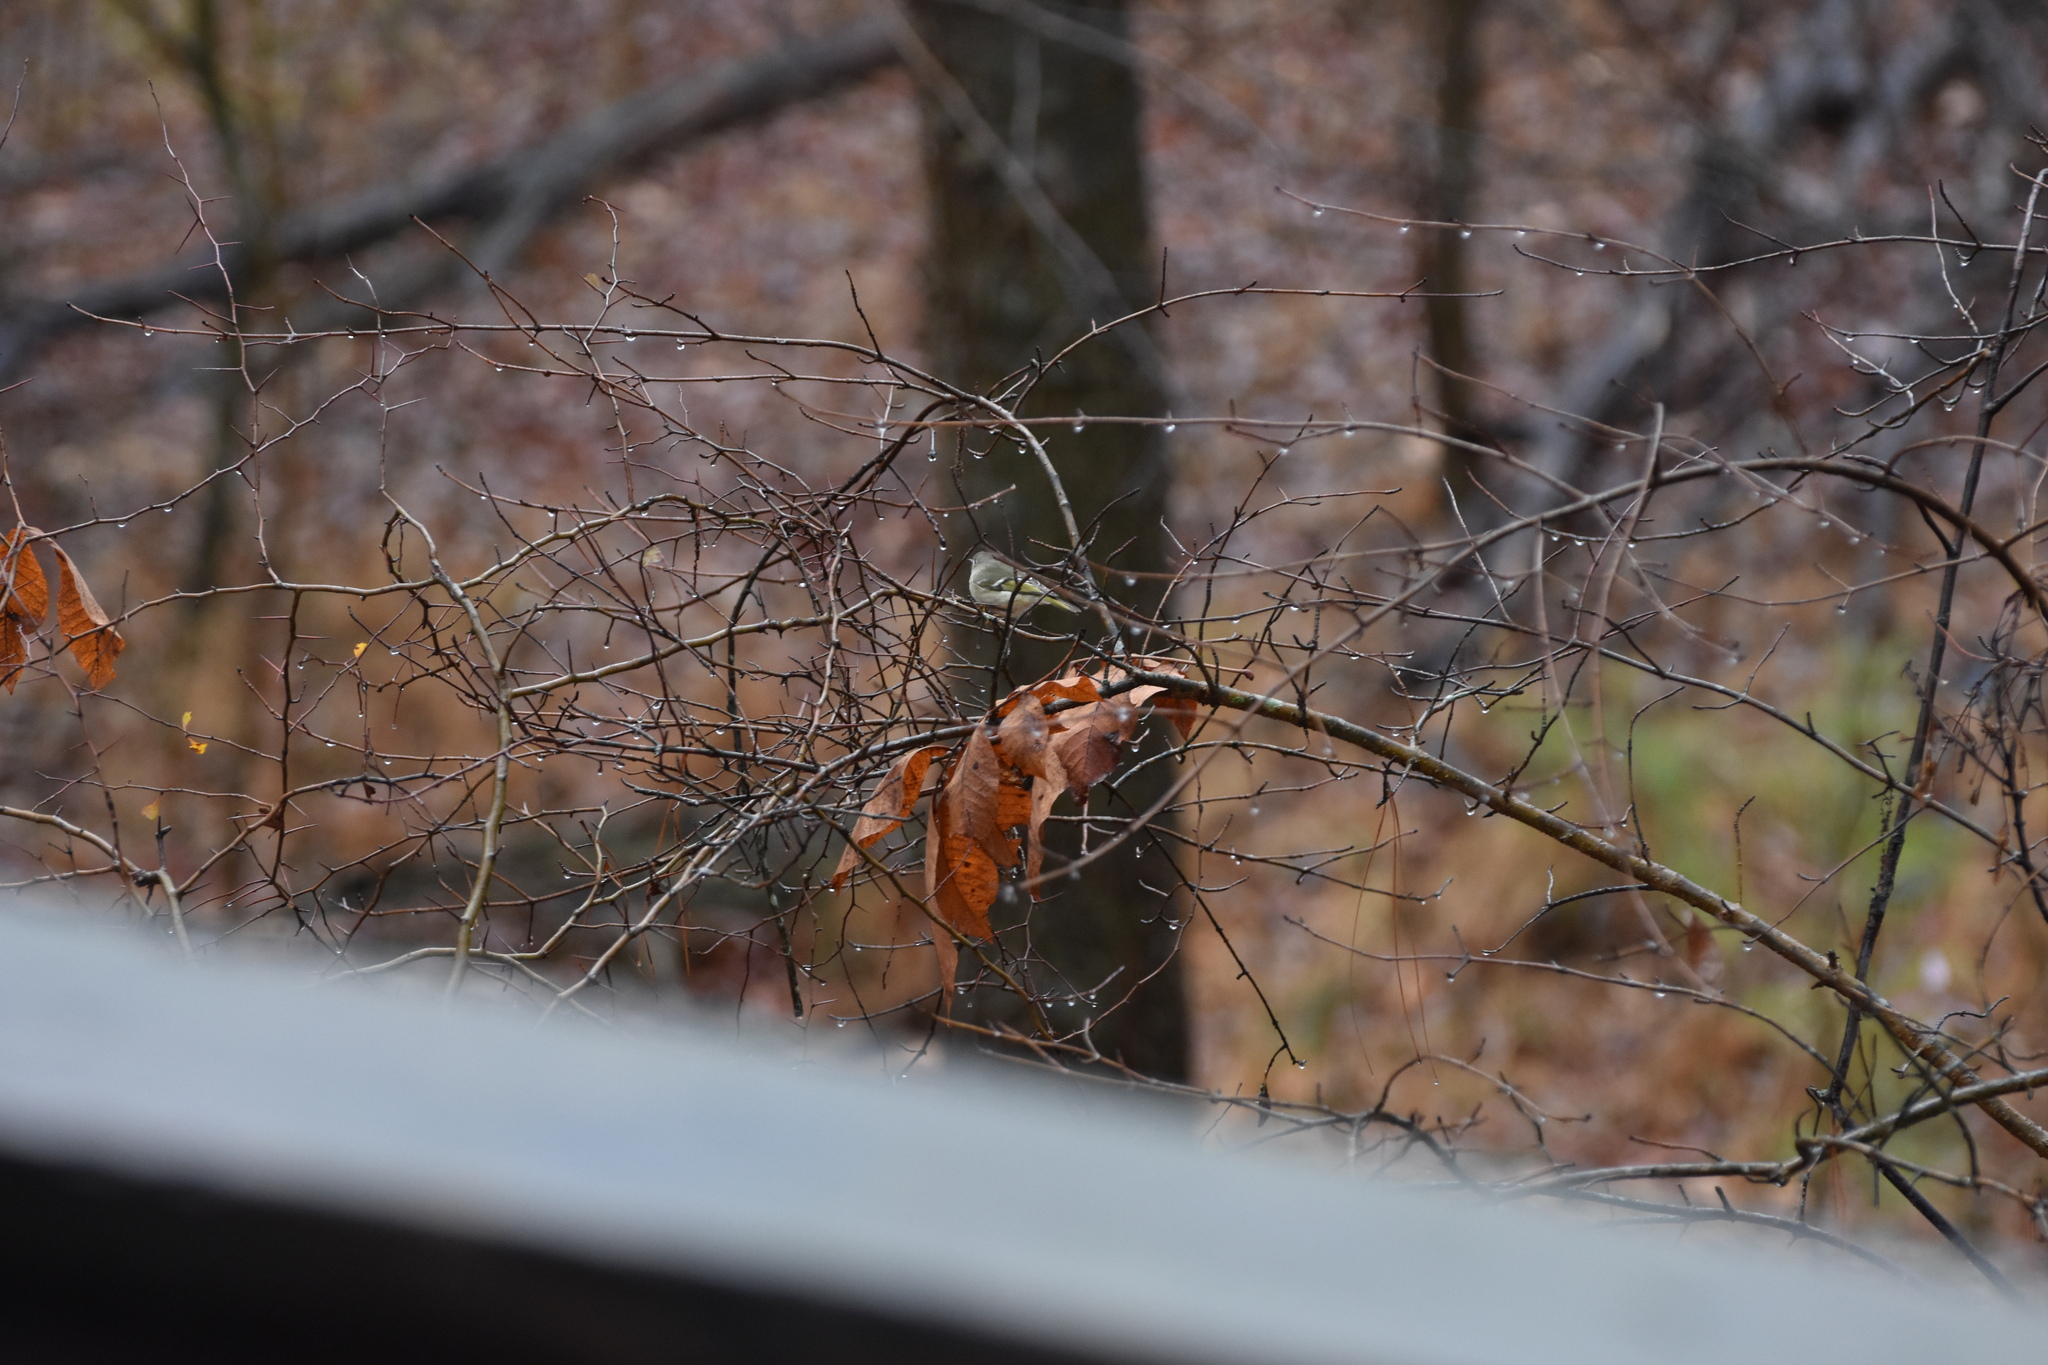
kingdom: Animalia
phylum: Chordata
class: Aves
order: Passeriformes
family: Regulidae
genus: Regulus
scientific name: Regulus calendula
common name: Ruby-crowned kinglet
